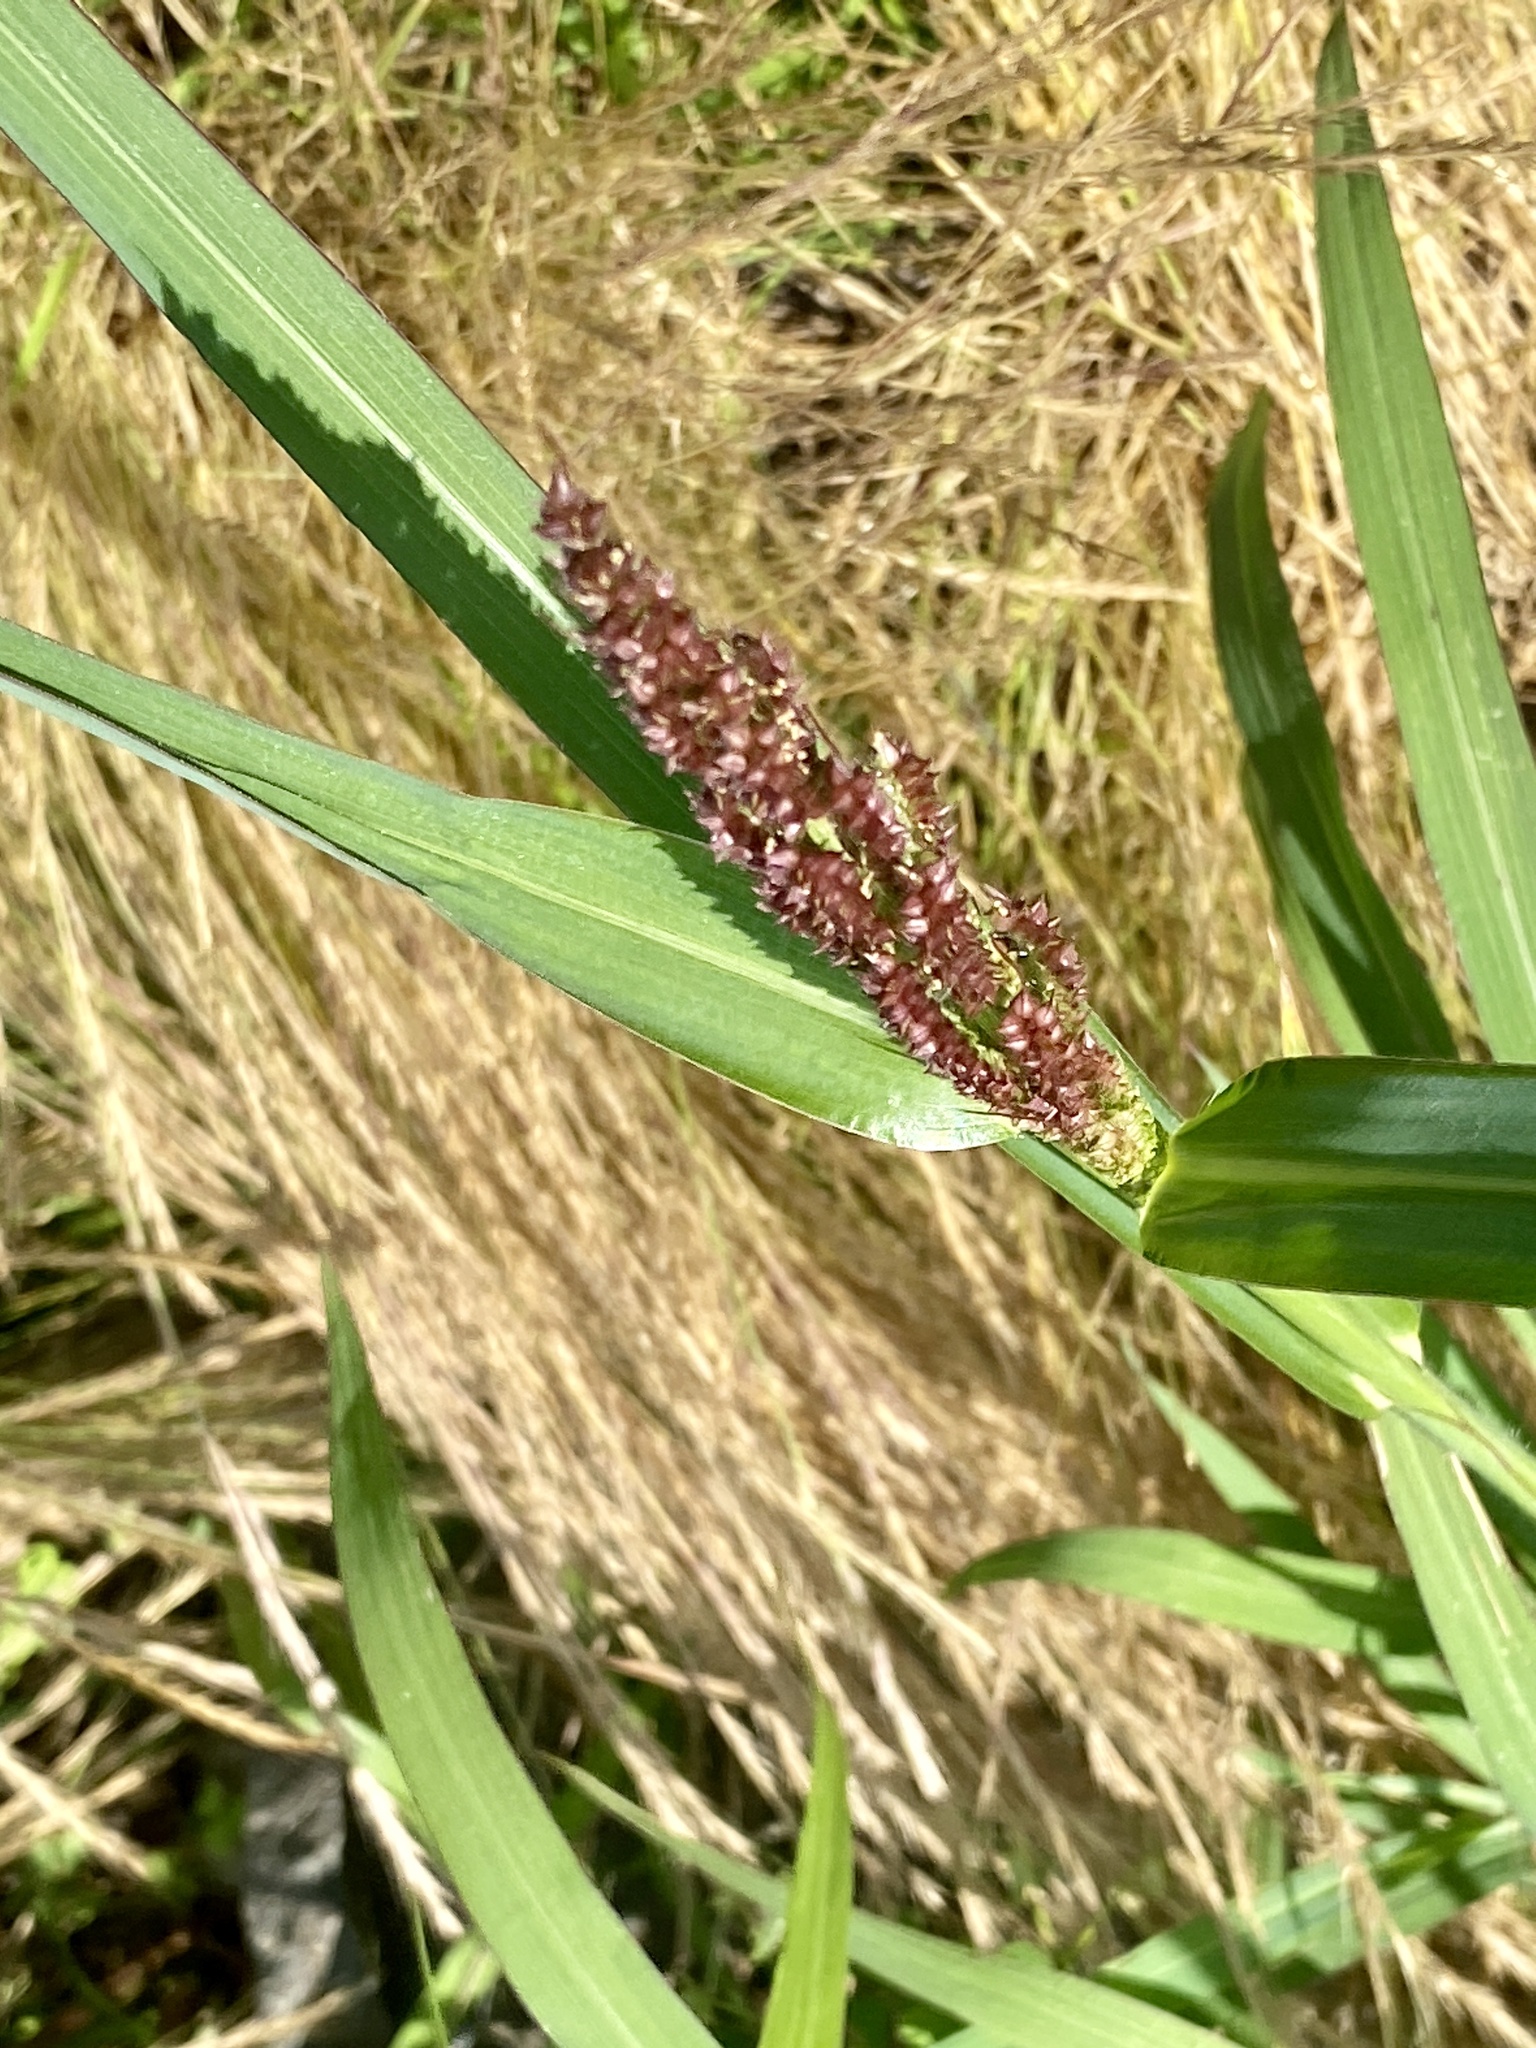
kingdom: Plantae
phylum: Tracheophyta
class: Liliopsida
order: Poales
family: Poaceae
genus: Echinochloa
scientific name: Echinochloa crus-galli
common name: Cockspur
